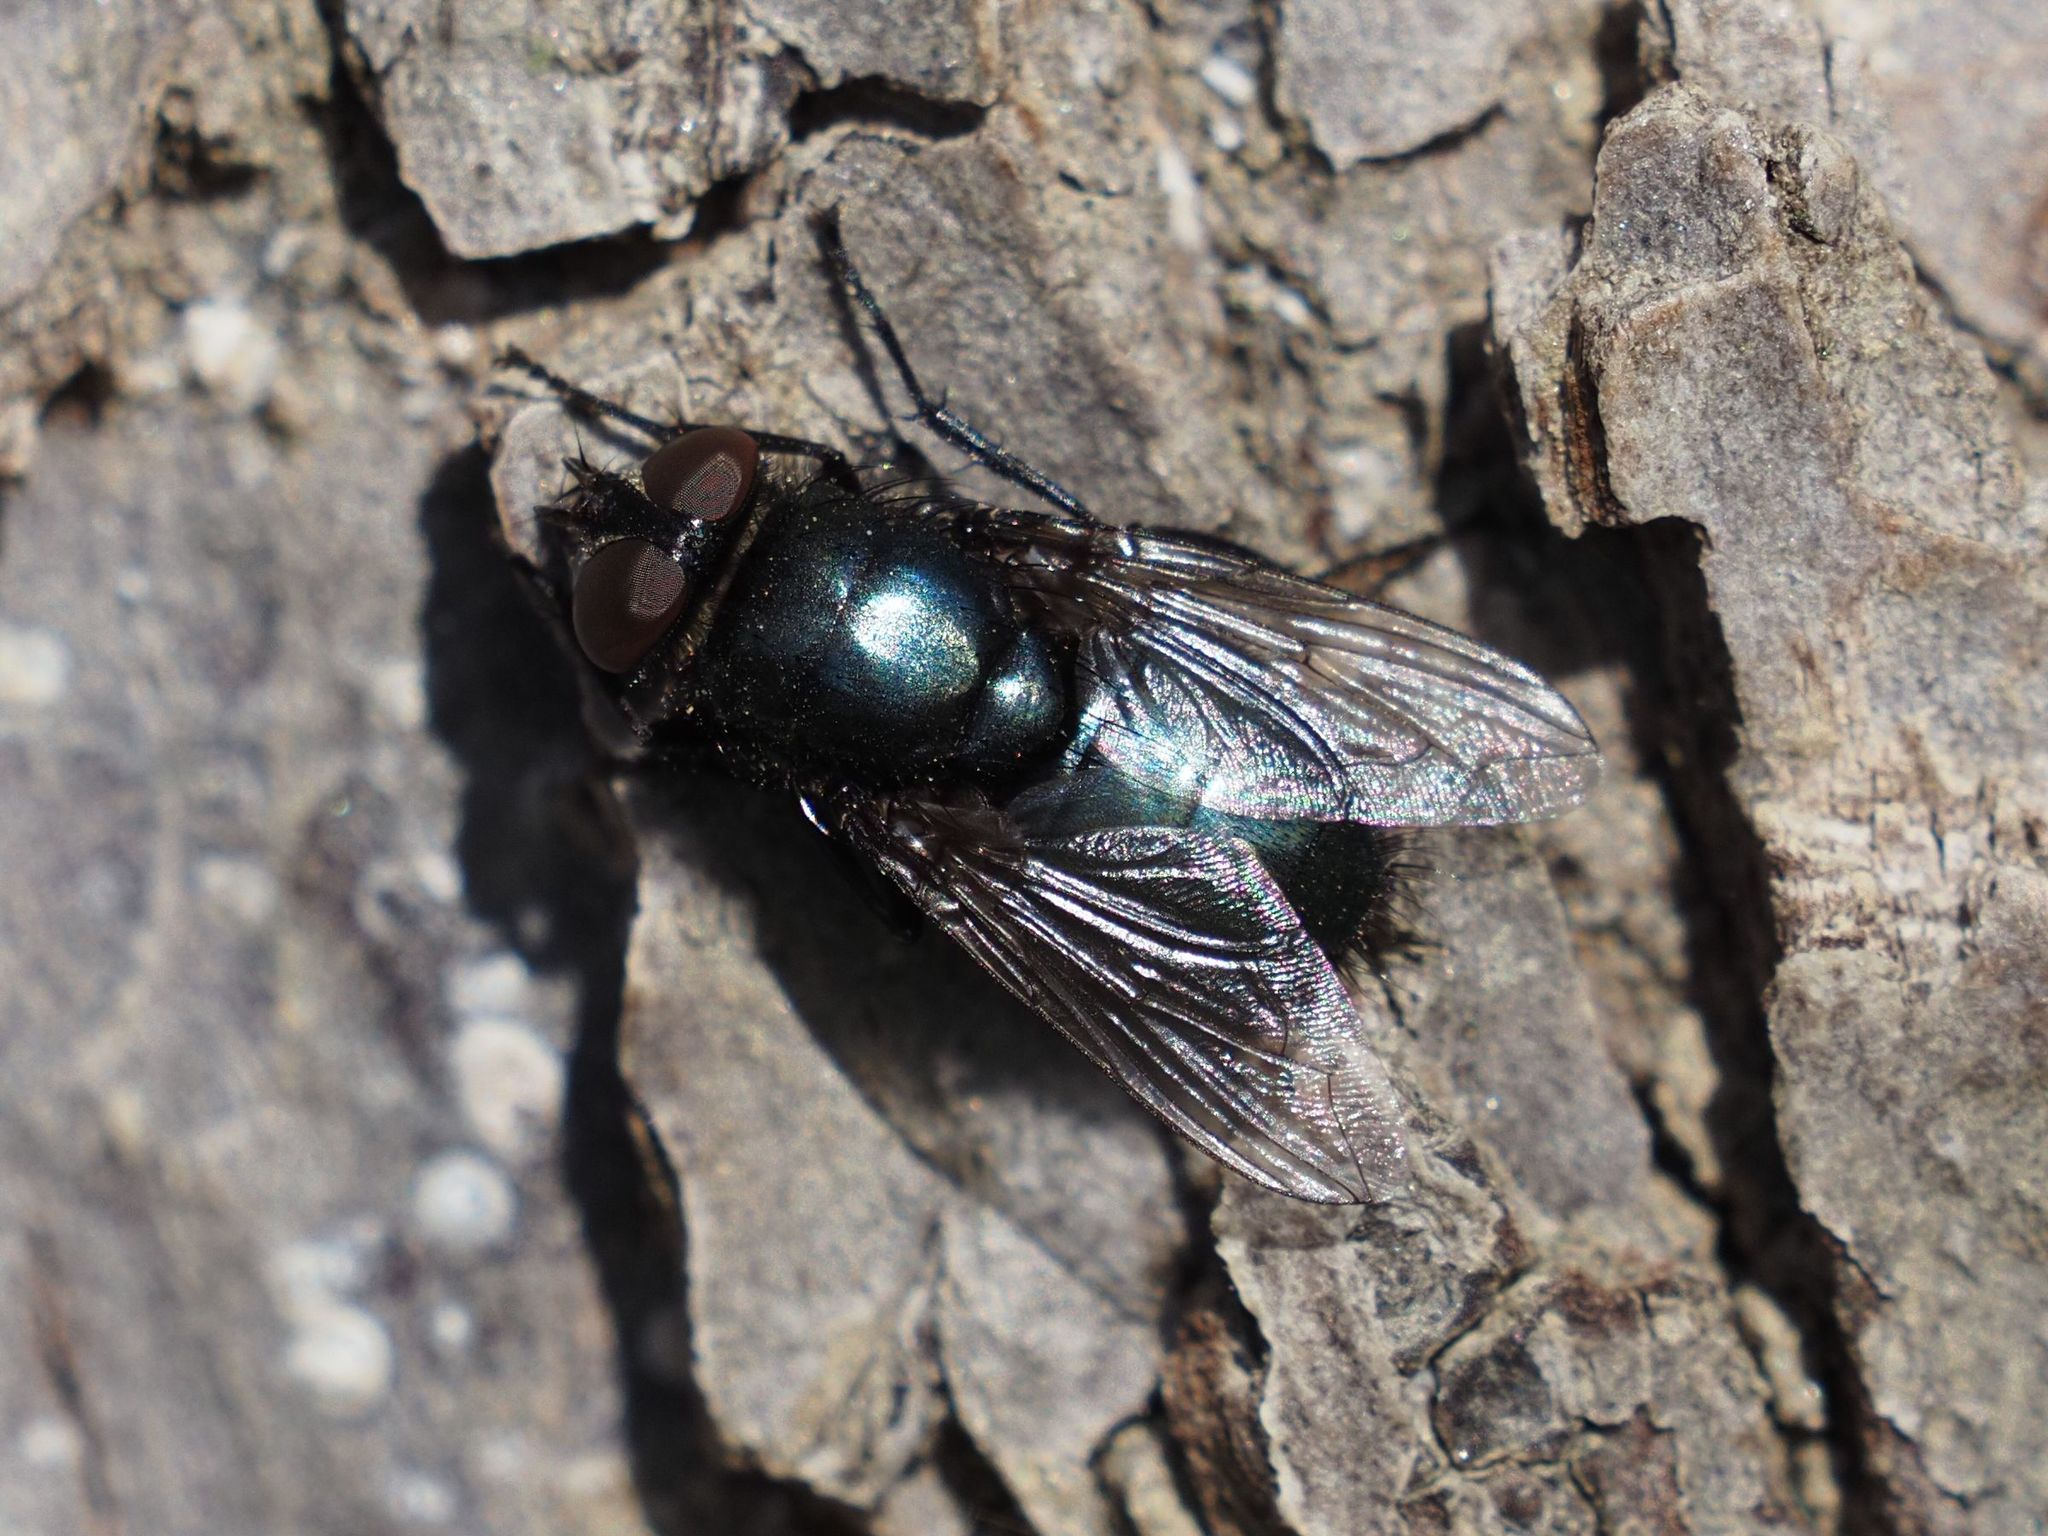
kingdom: Animalia
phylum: Arthropoda
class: Insecta
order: Diptera
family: Calliphoridae
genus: Protophormia
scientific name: Protophormia terraenovae
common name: Blackbottle
